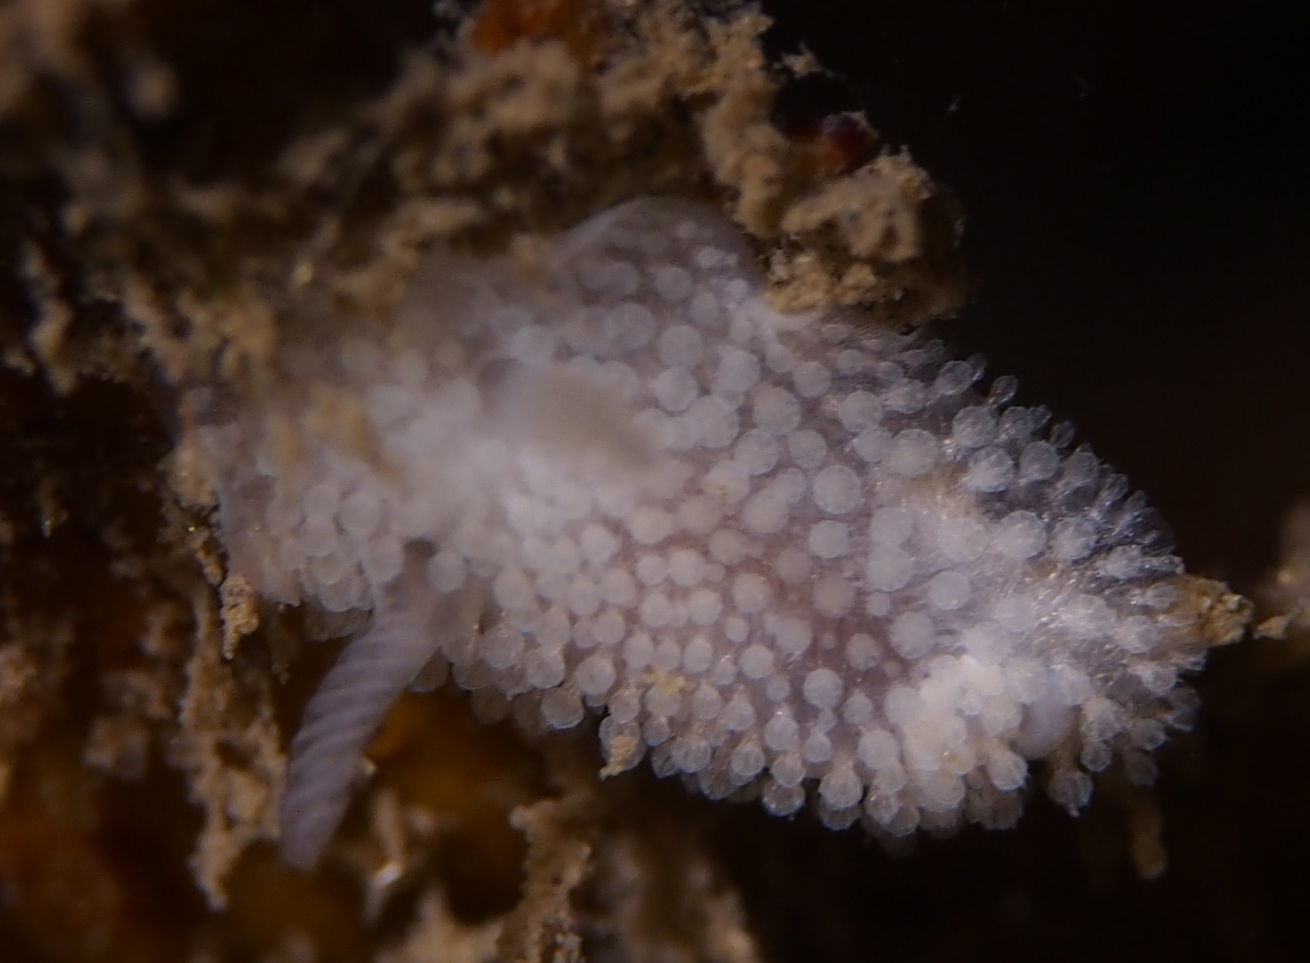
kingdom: Animalia
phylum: Mollusca
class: Gastropoda
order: Nudibranchia
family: Onchidorididae
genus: Onchidoris
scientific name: Onchidoris muricata
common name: Rough doris
